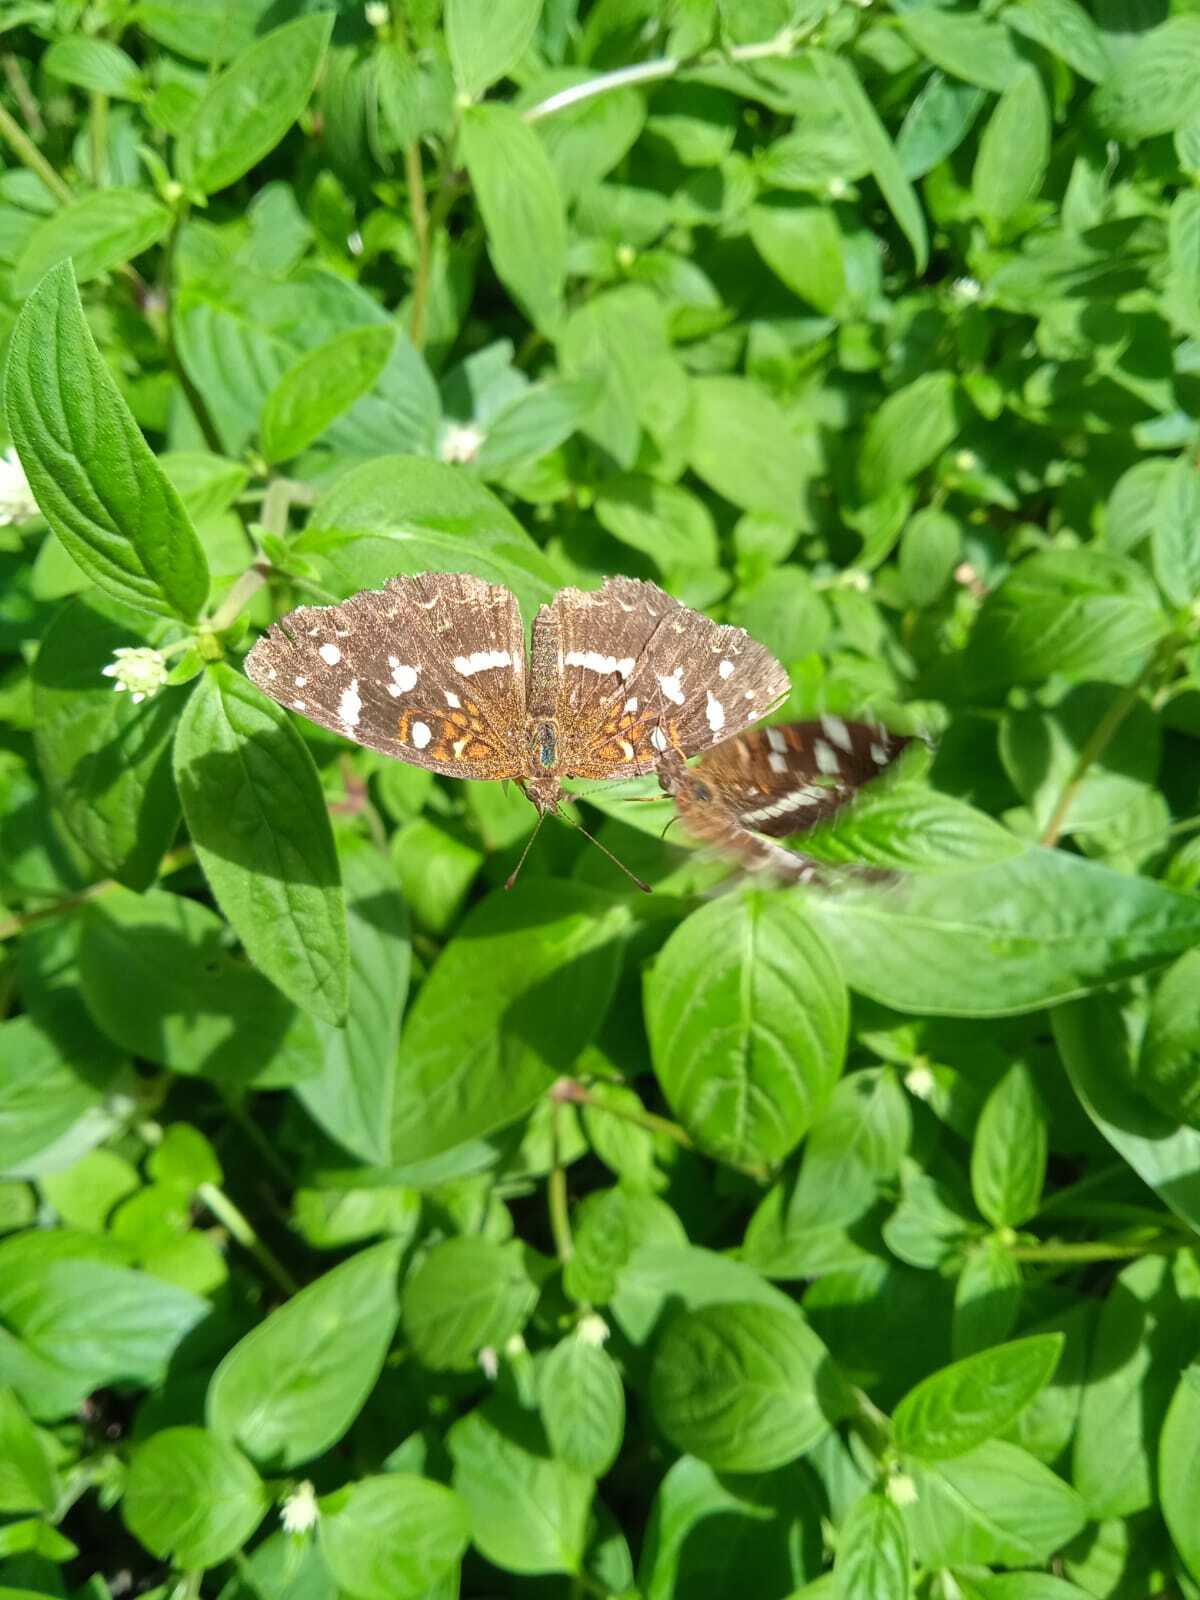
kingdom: Animalia
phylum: Arthropoda
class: Insecta
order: Lepidoptera
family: Nymphalidae
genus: Ortilia
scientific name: Ortilia ithra
